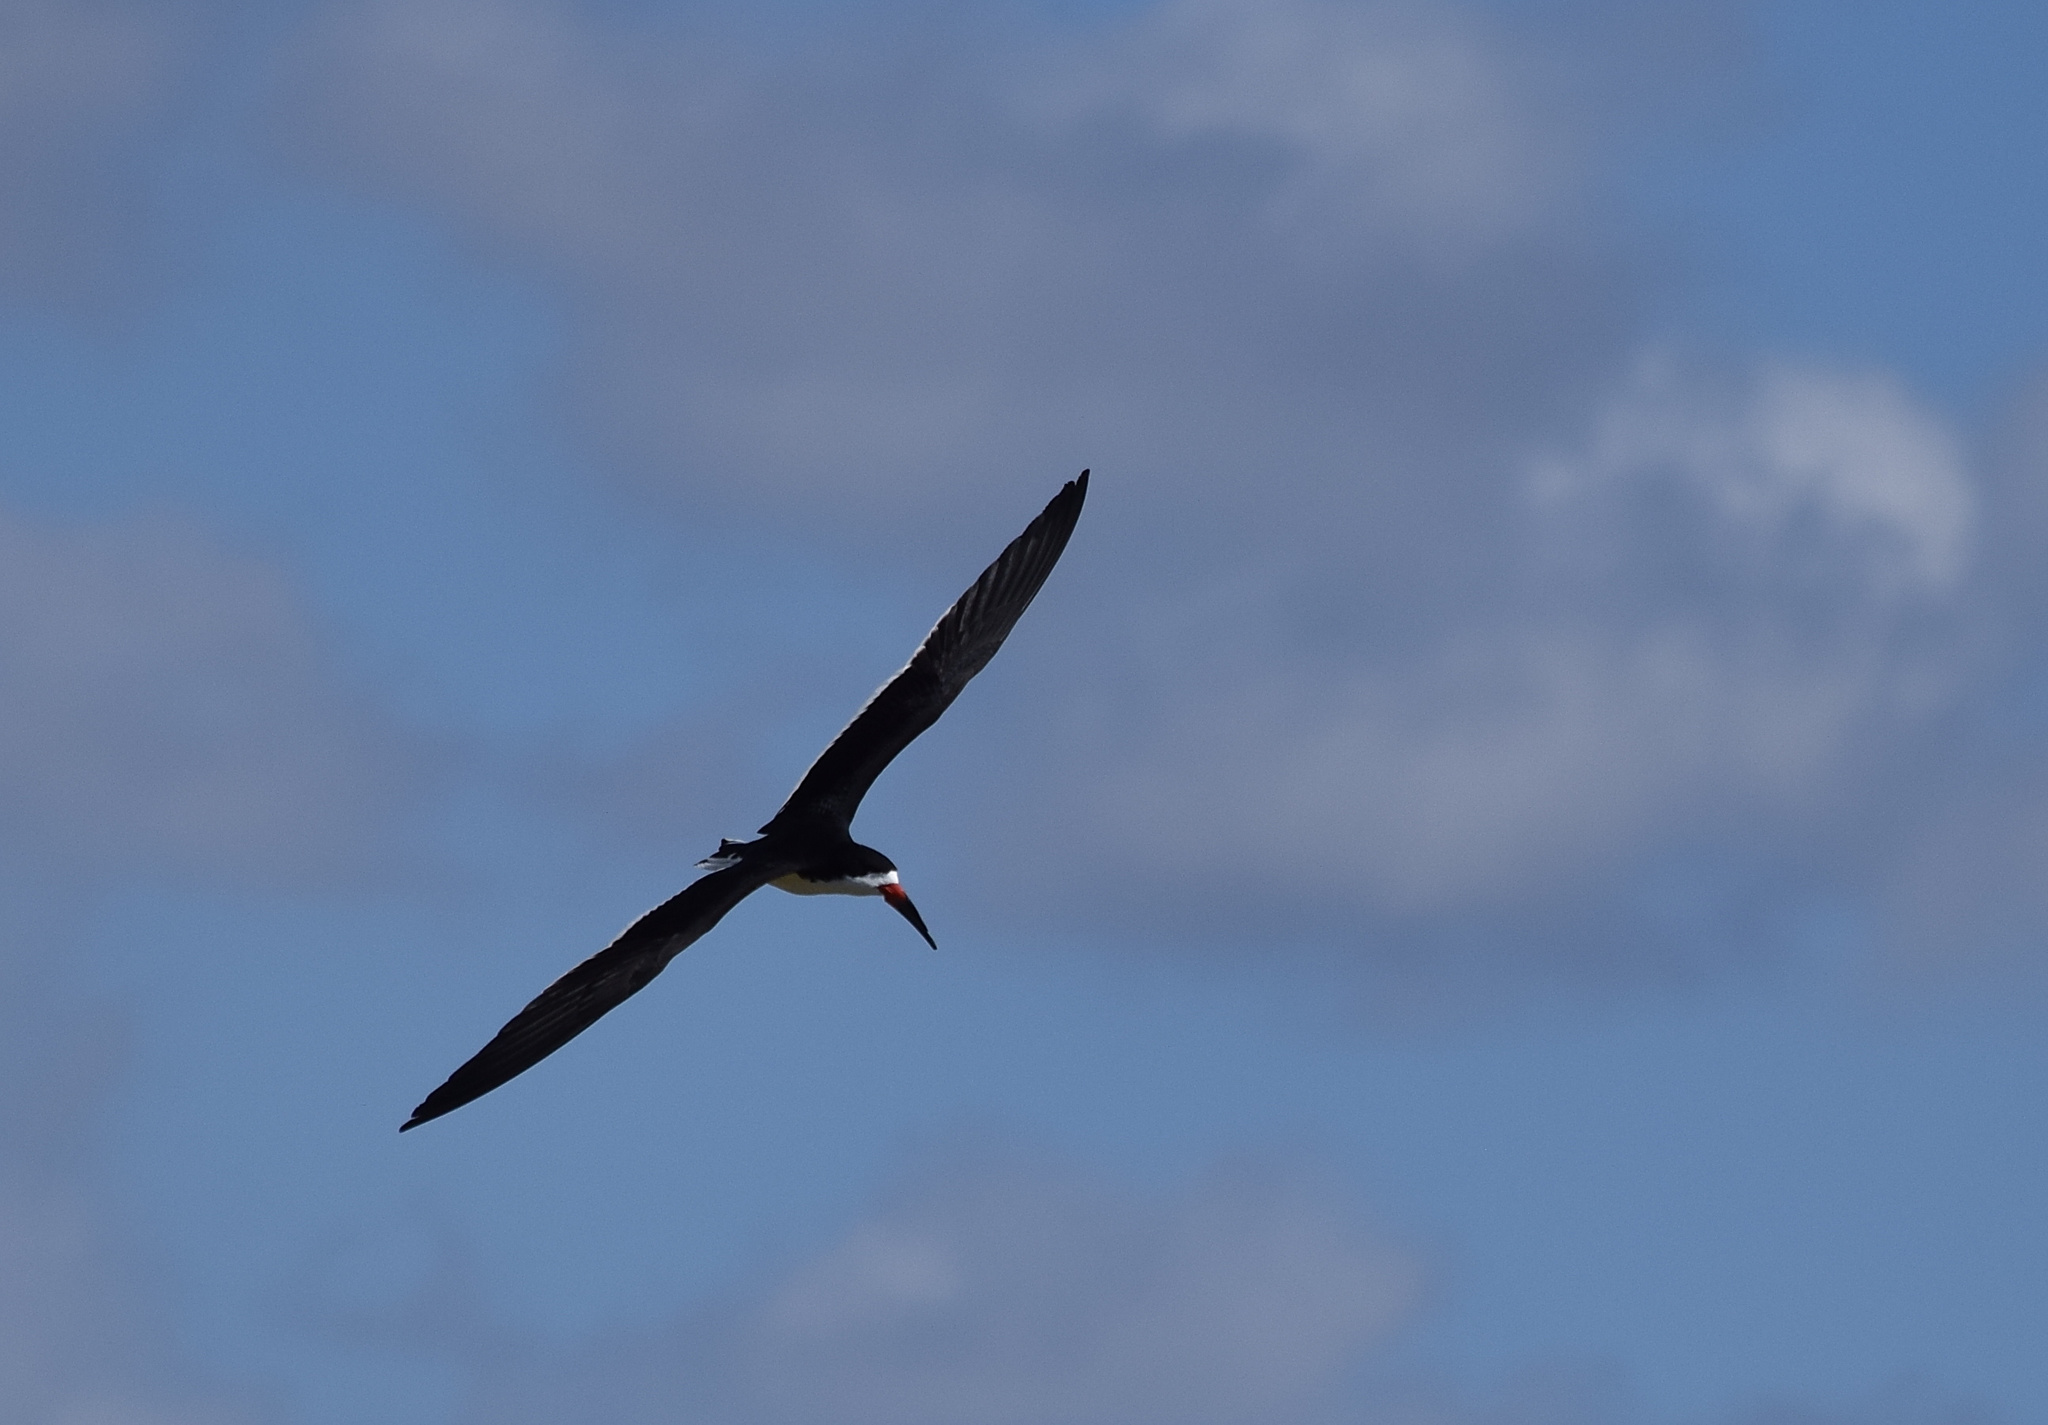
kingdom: Animalia
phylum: Chordata
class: Aves
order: Charadriiformes
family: Laridae
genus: Rynchops
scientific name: Rynchops niger
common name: Black skimmer
